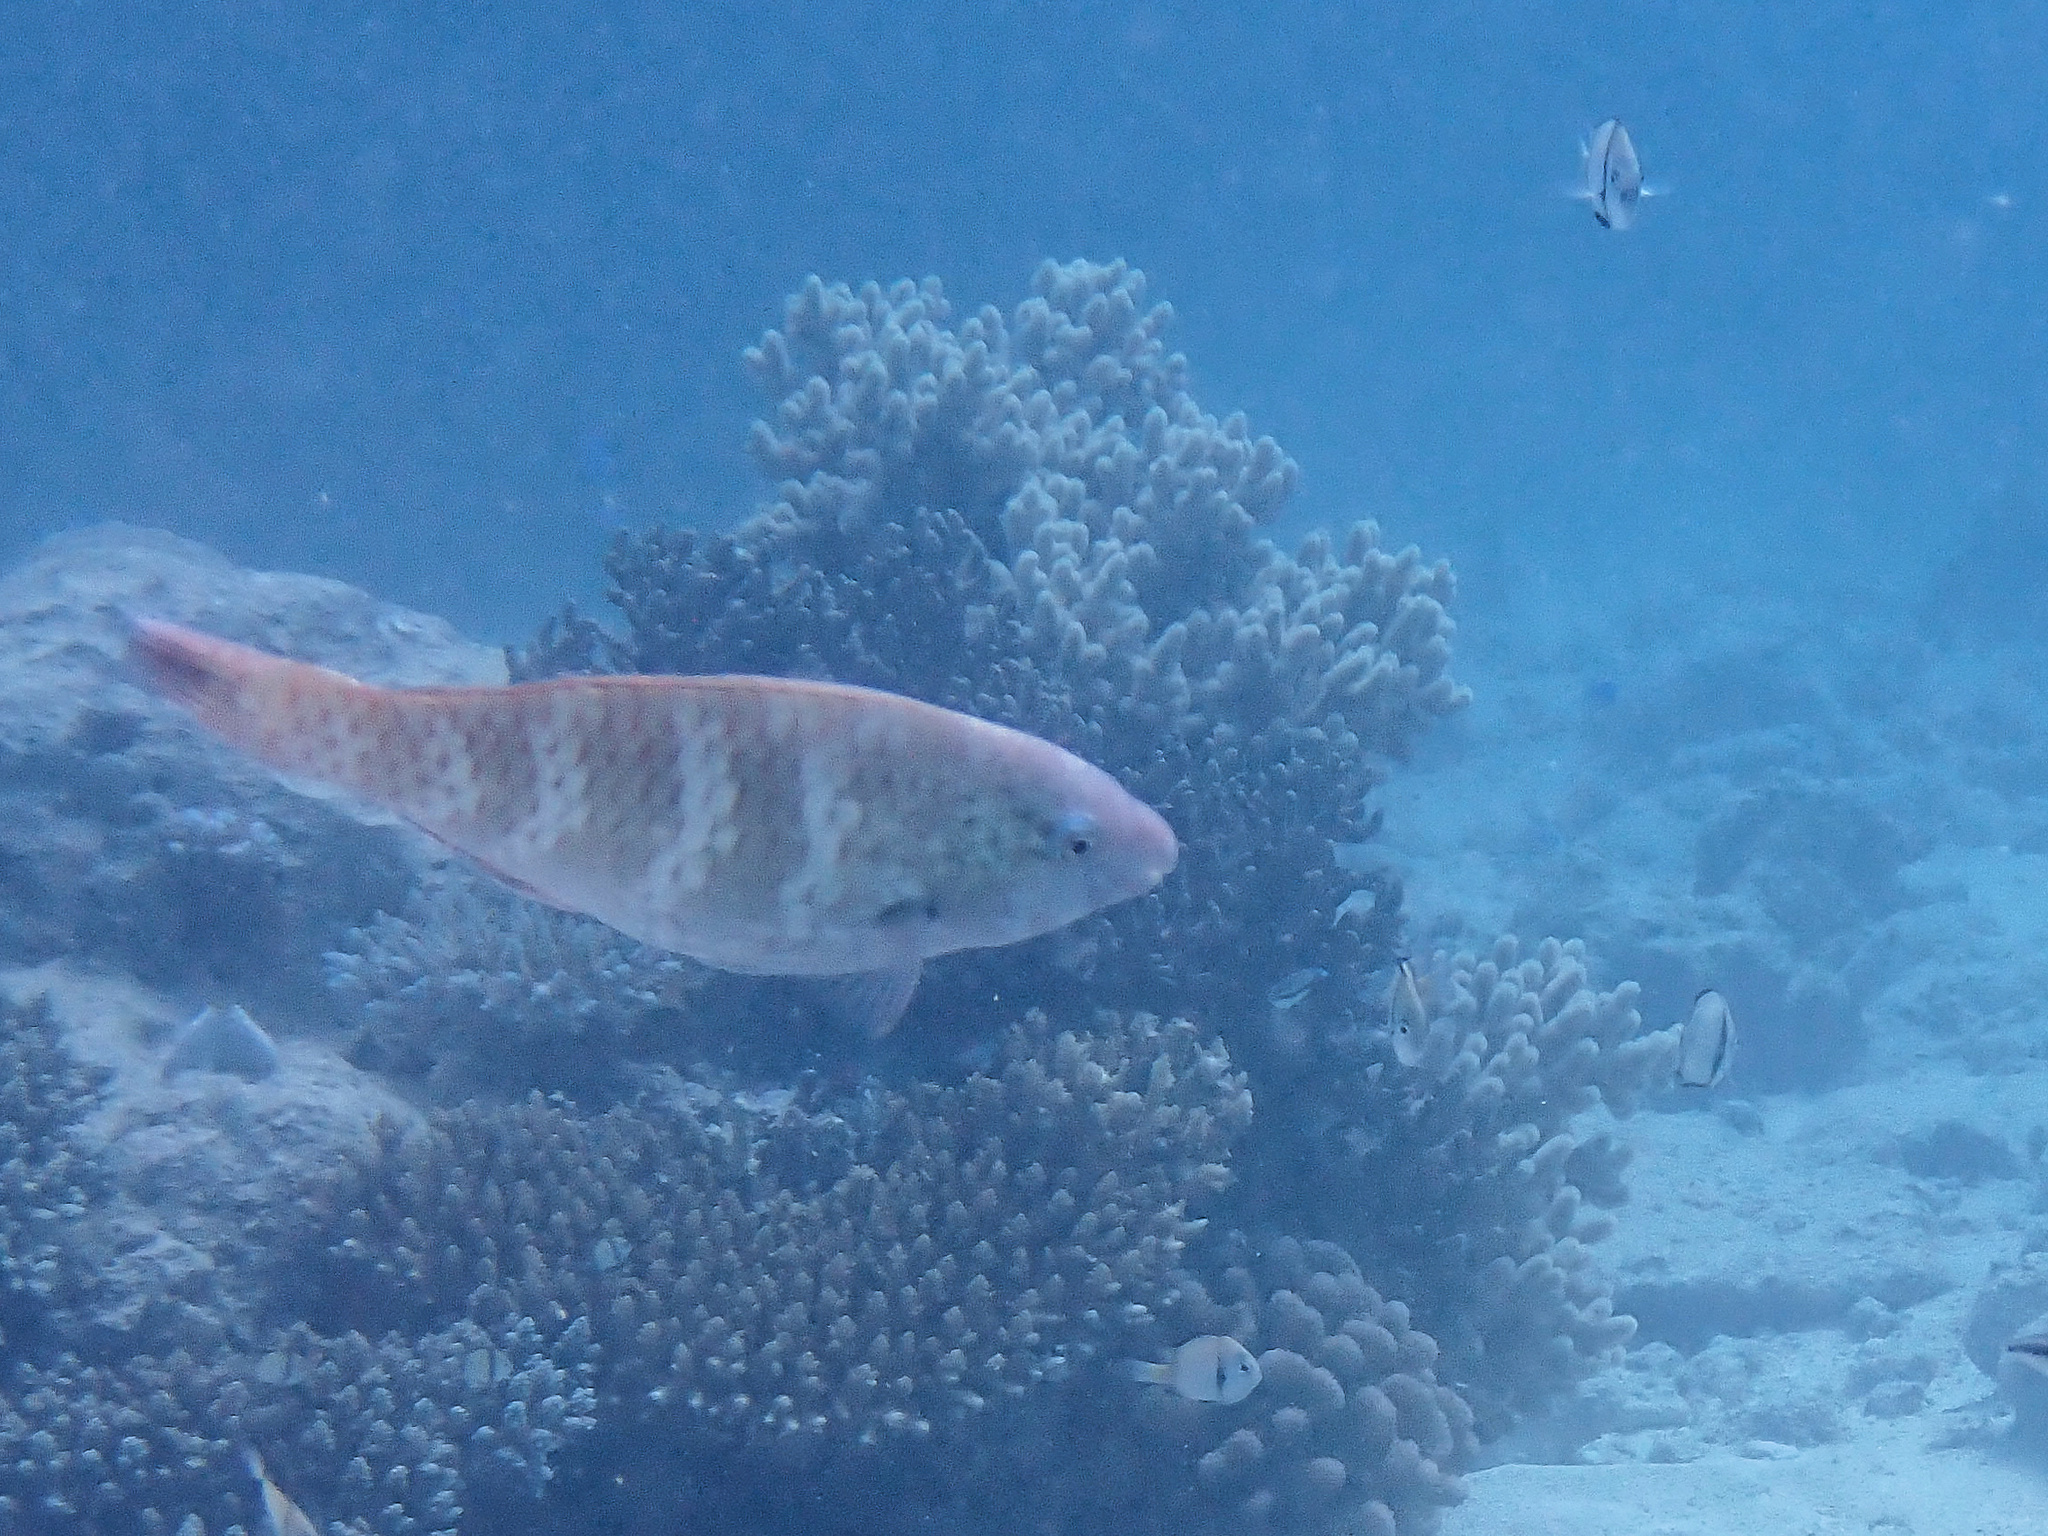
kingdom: Animalia
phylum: Chordata
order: Perciformes
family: Scaridae
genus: Scarus
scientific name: Scarus schlegeli
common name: Schlegel's parrotfish
